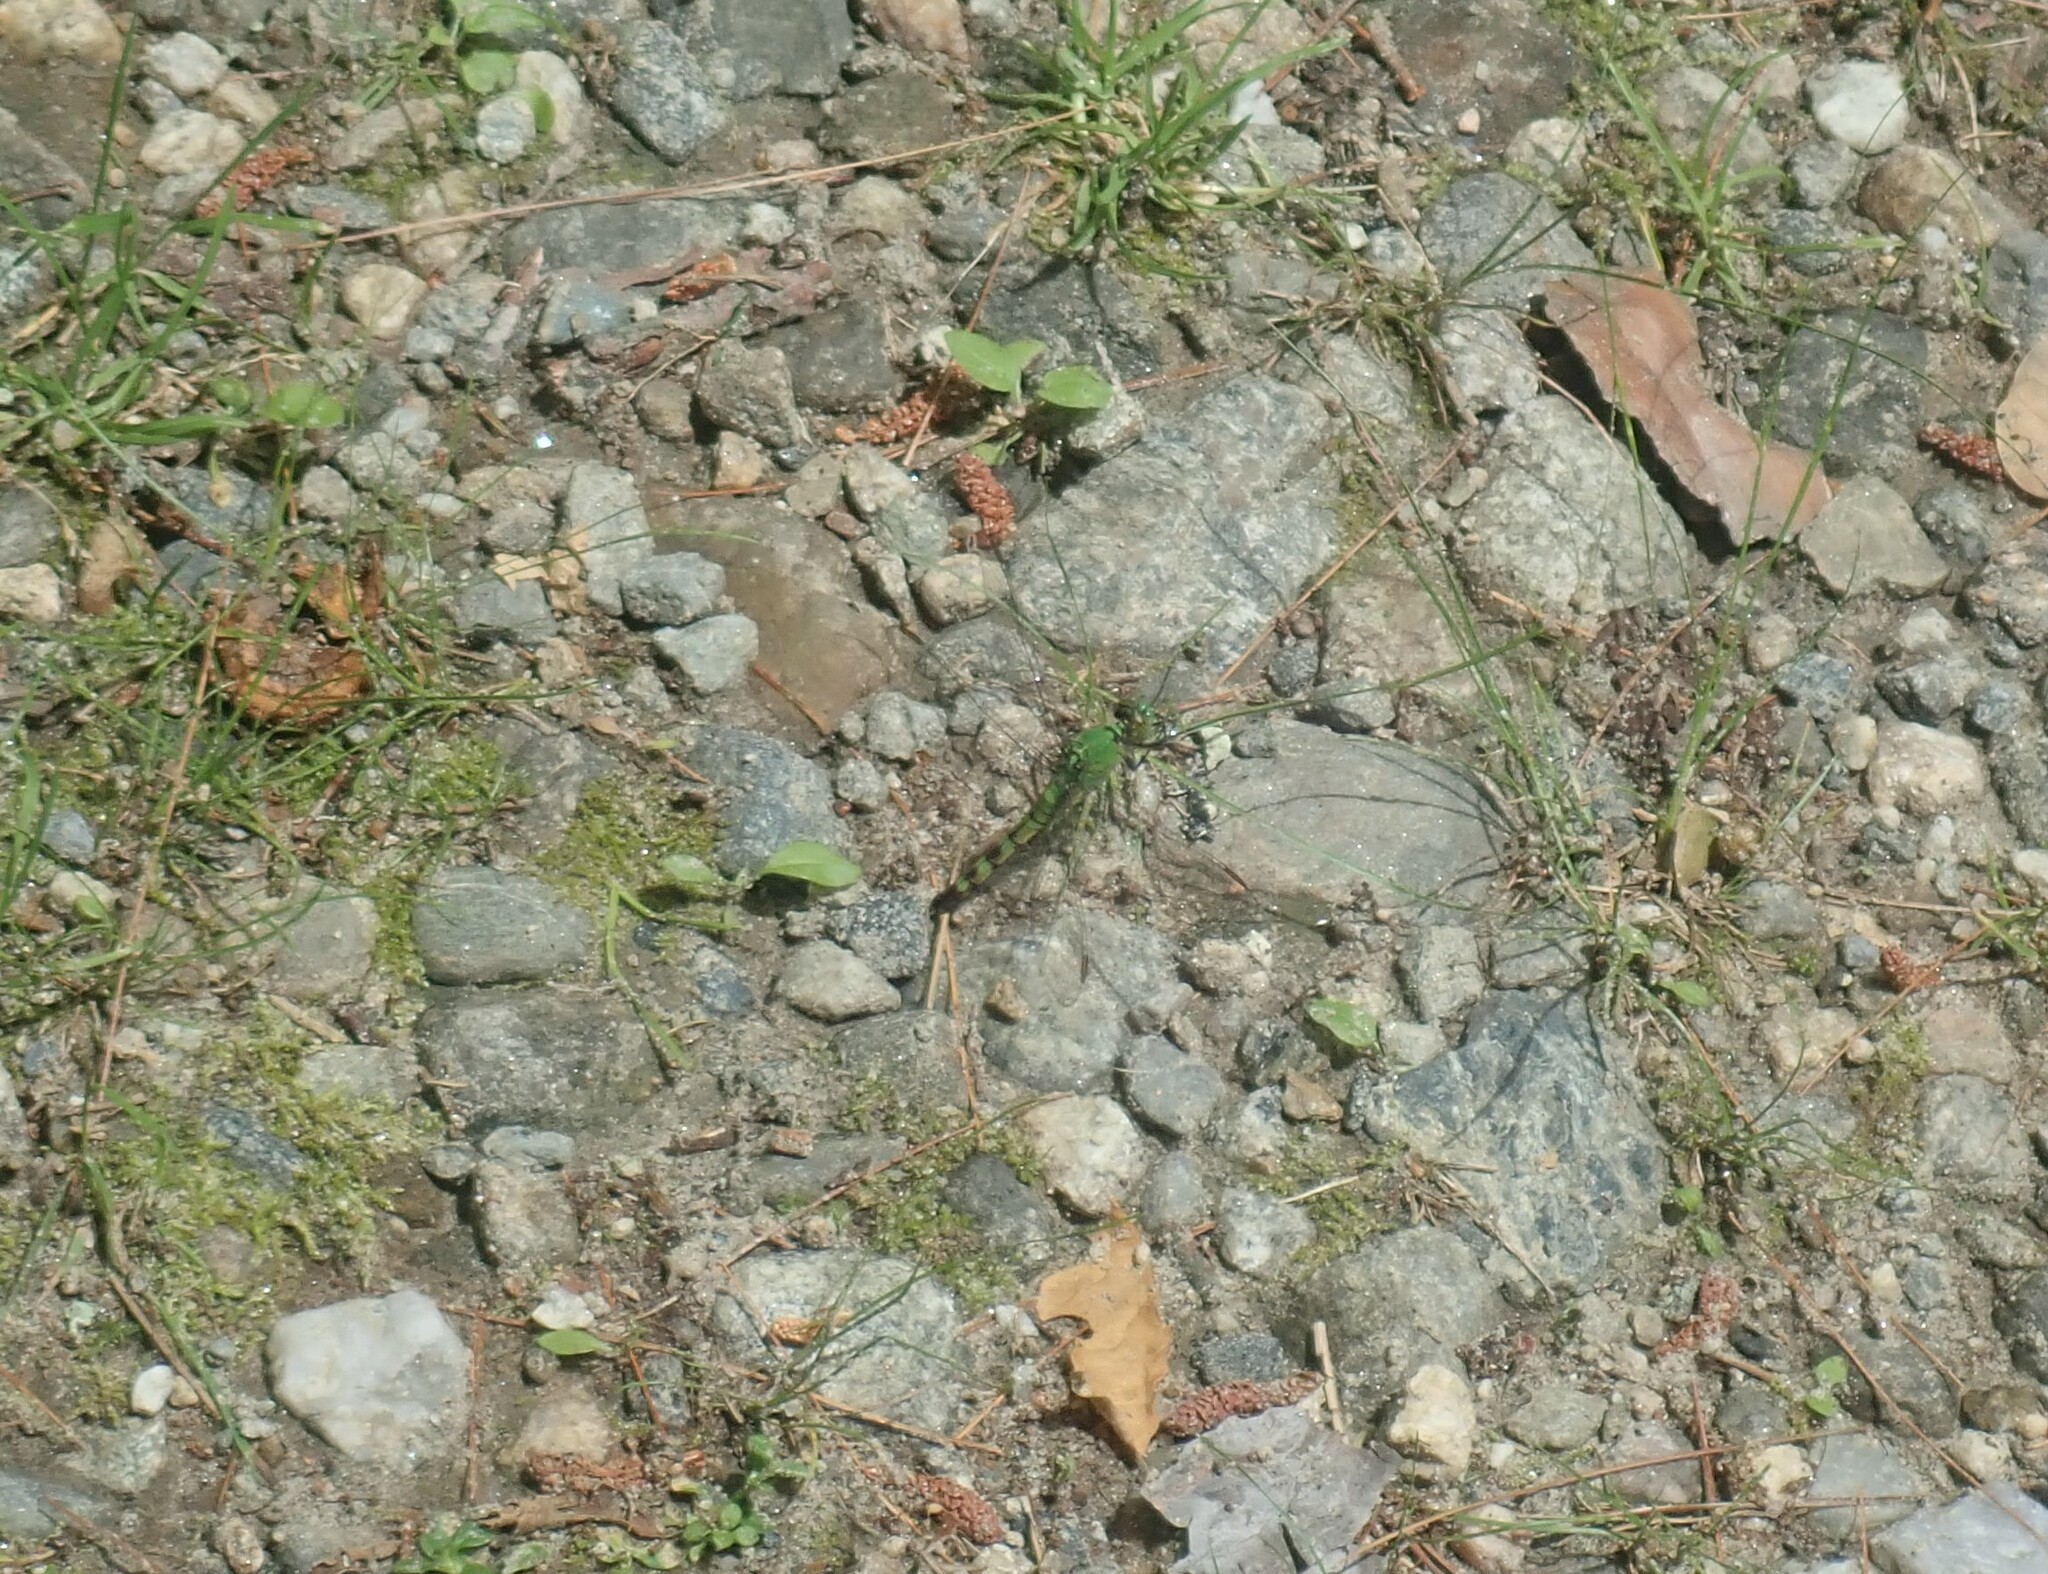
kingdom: Animalia
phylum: Arthropoda
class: Insecta
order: Odonata
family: Libellulidae
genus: Erythemis
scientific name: Erythemis simplicicollis
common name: Eastern pondhawk
